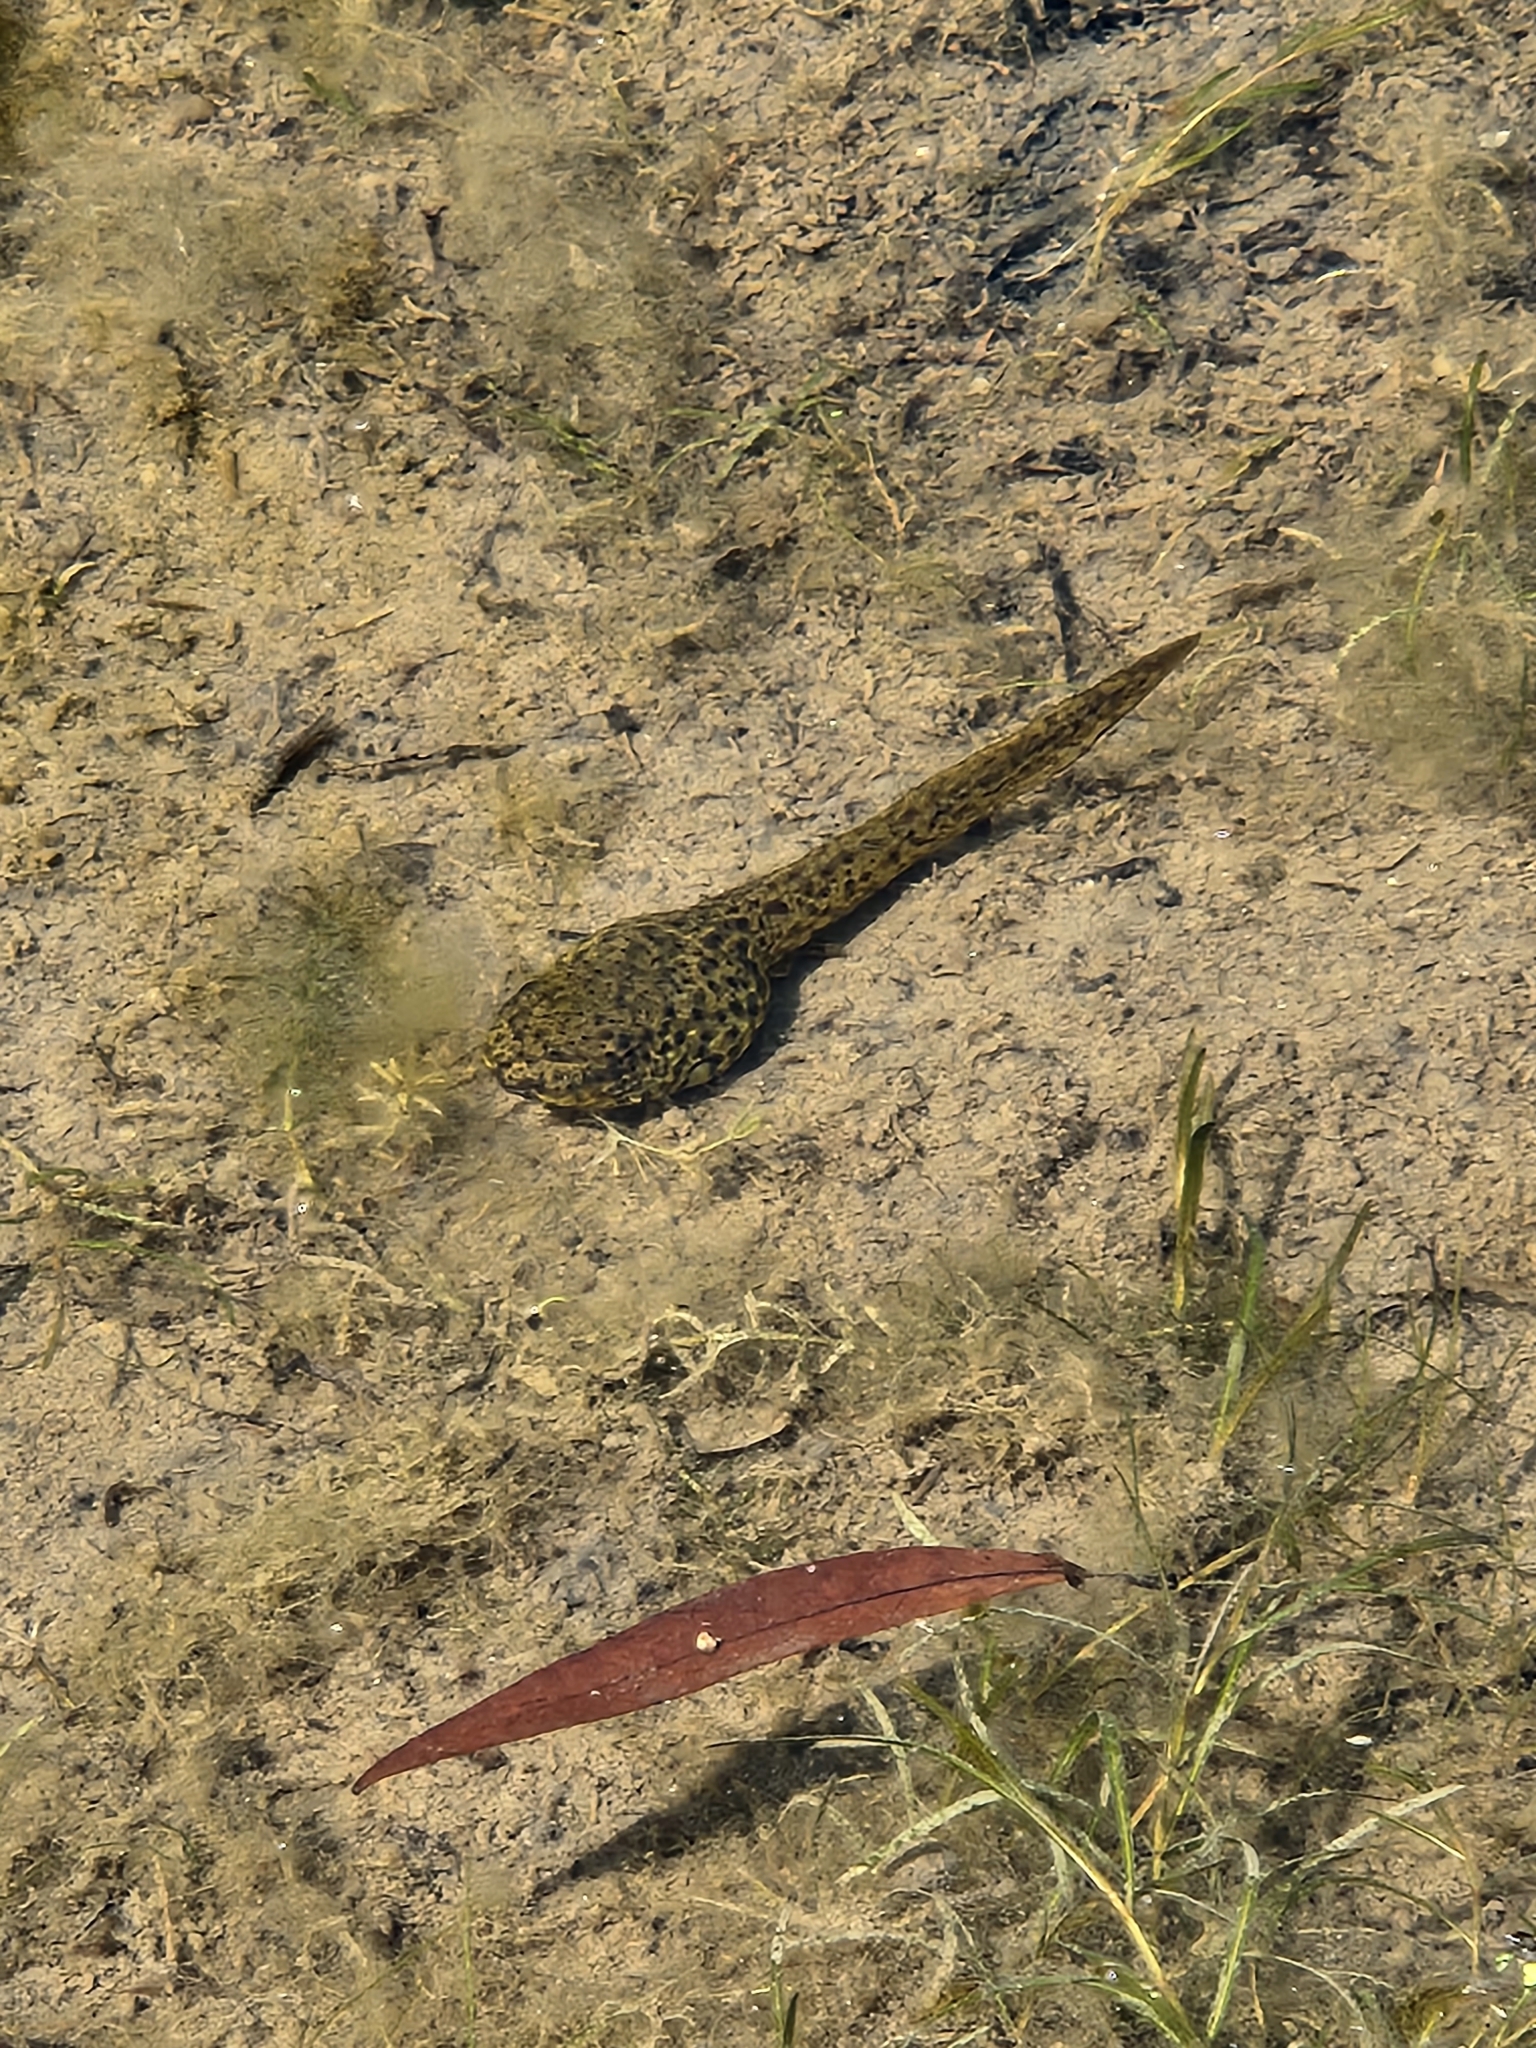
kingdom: Animalia
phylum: Chordata
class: Amphibia
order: Anura
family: Ranidae
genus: Lithobates
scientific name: Lithobates catesbeianus
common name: American bullfrog
